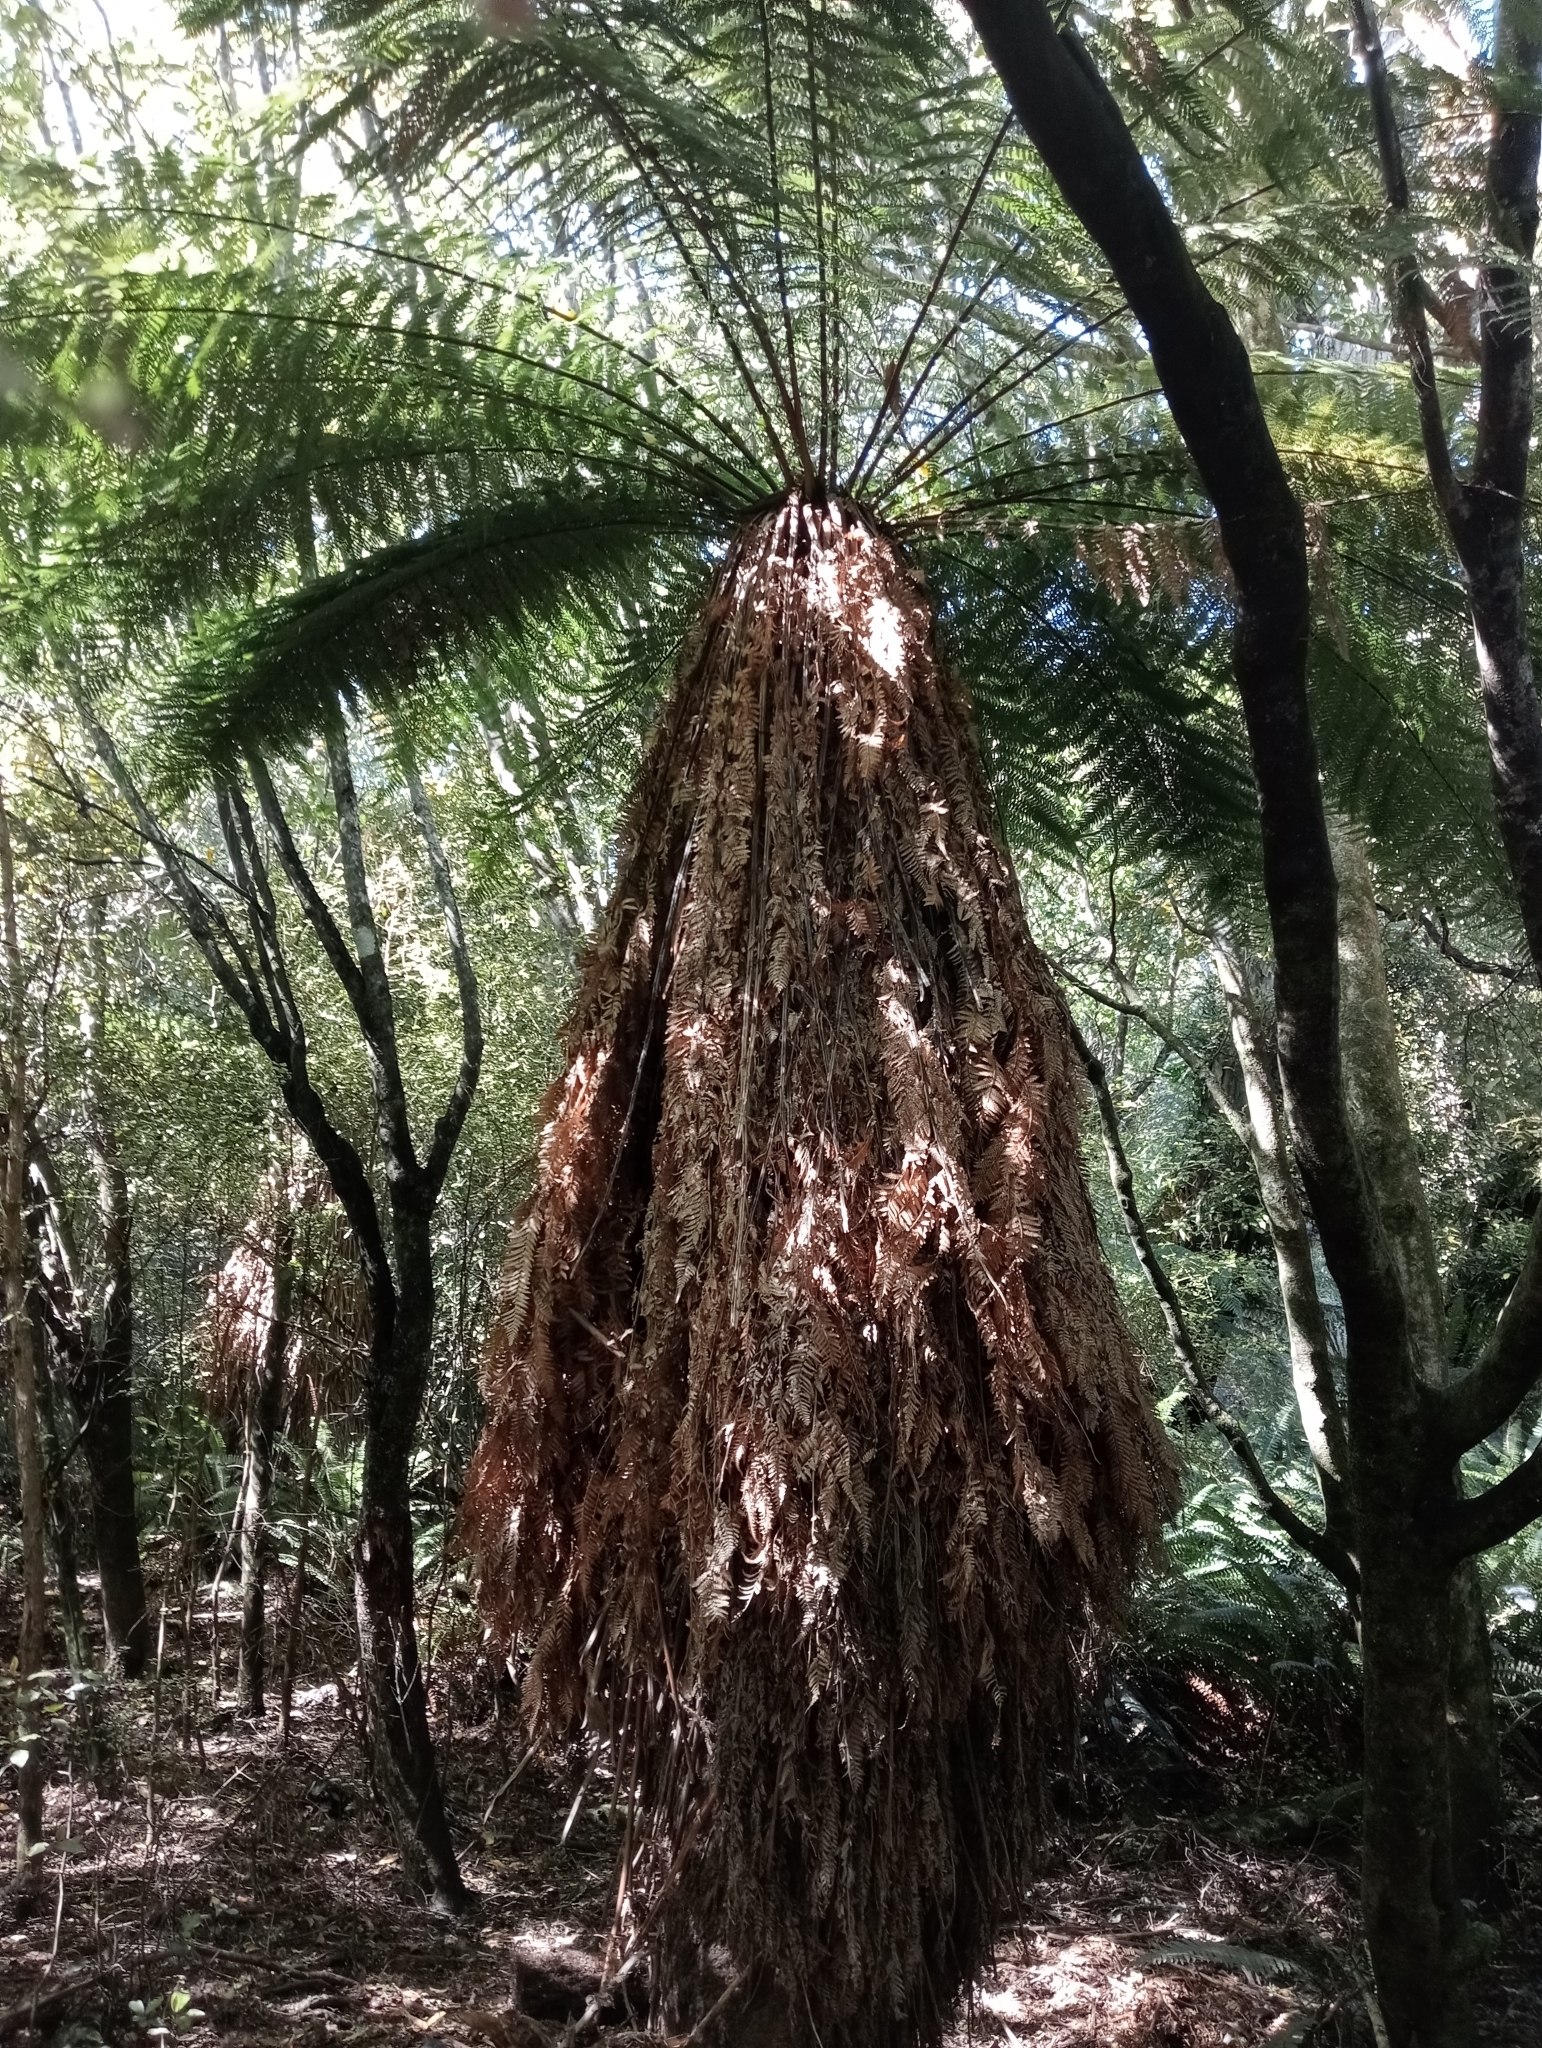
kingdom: Plantae
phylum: Tracheophyta
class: Polypodiopsida
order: Cyatheales
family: Dicksoniaceae
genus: Dicksonia
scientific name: Dicksonia fibrosa
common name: Golden tree fern
